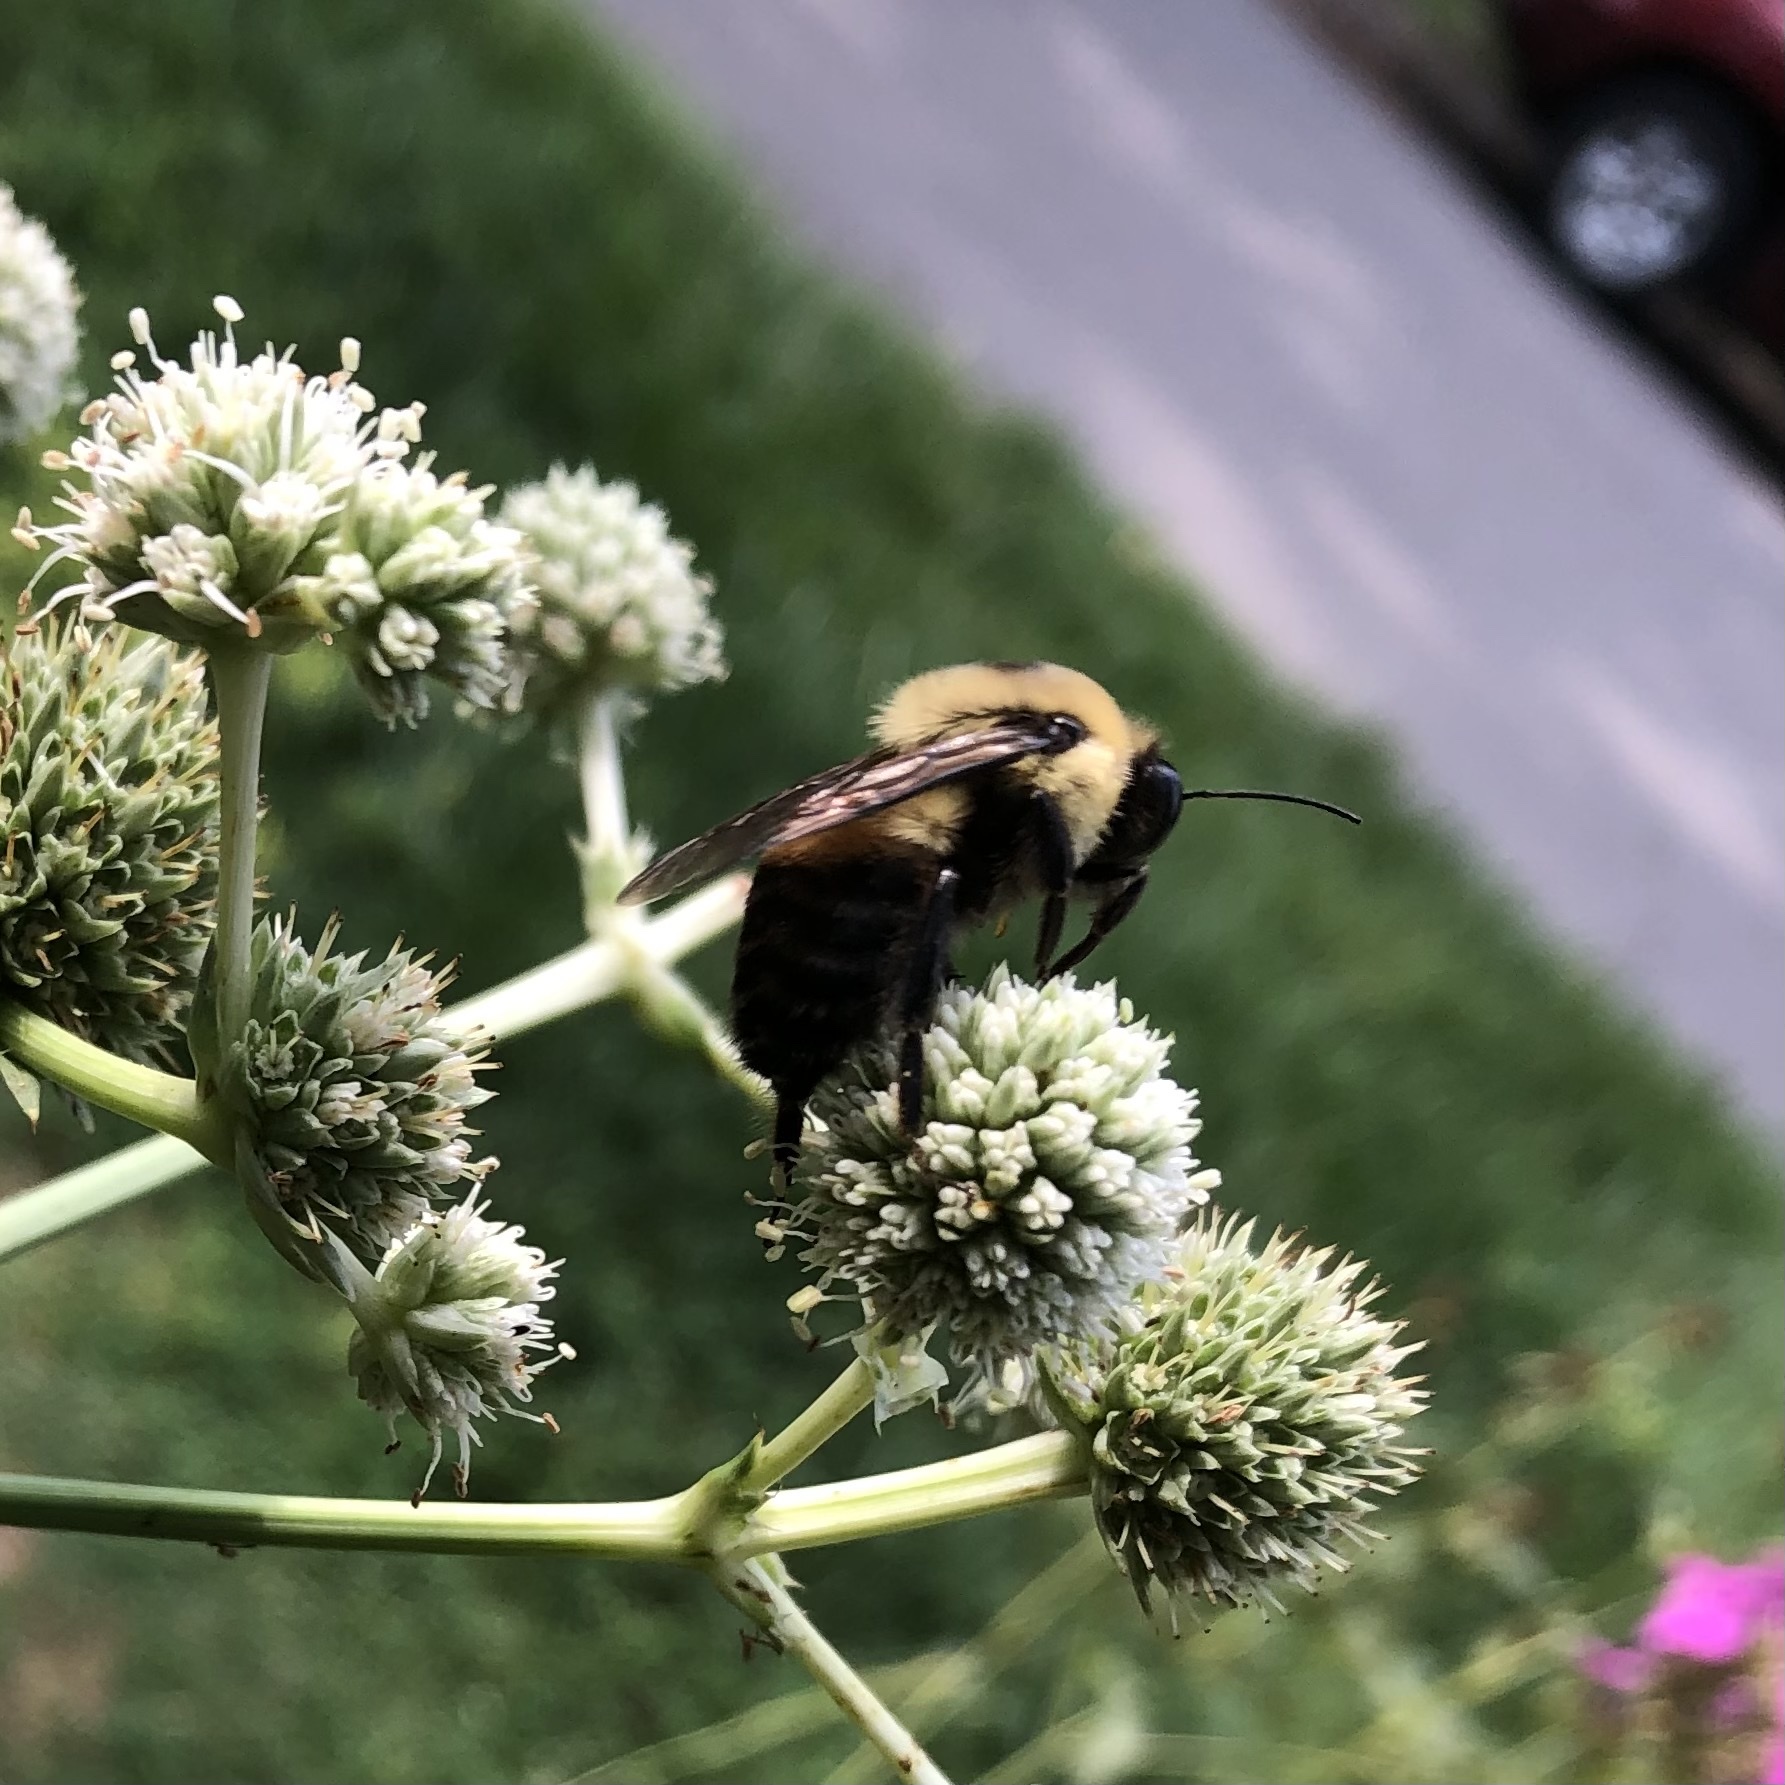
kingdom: Animalia
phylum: Arthropoda
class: Insecta
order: Hymenoptera
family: Apidae
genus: Bombus
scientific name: Bombus griseocollis
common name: Brown-belted bumble bee
